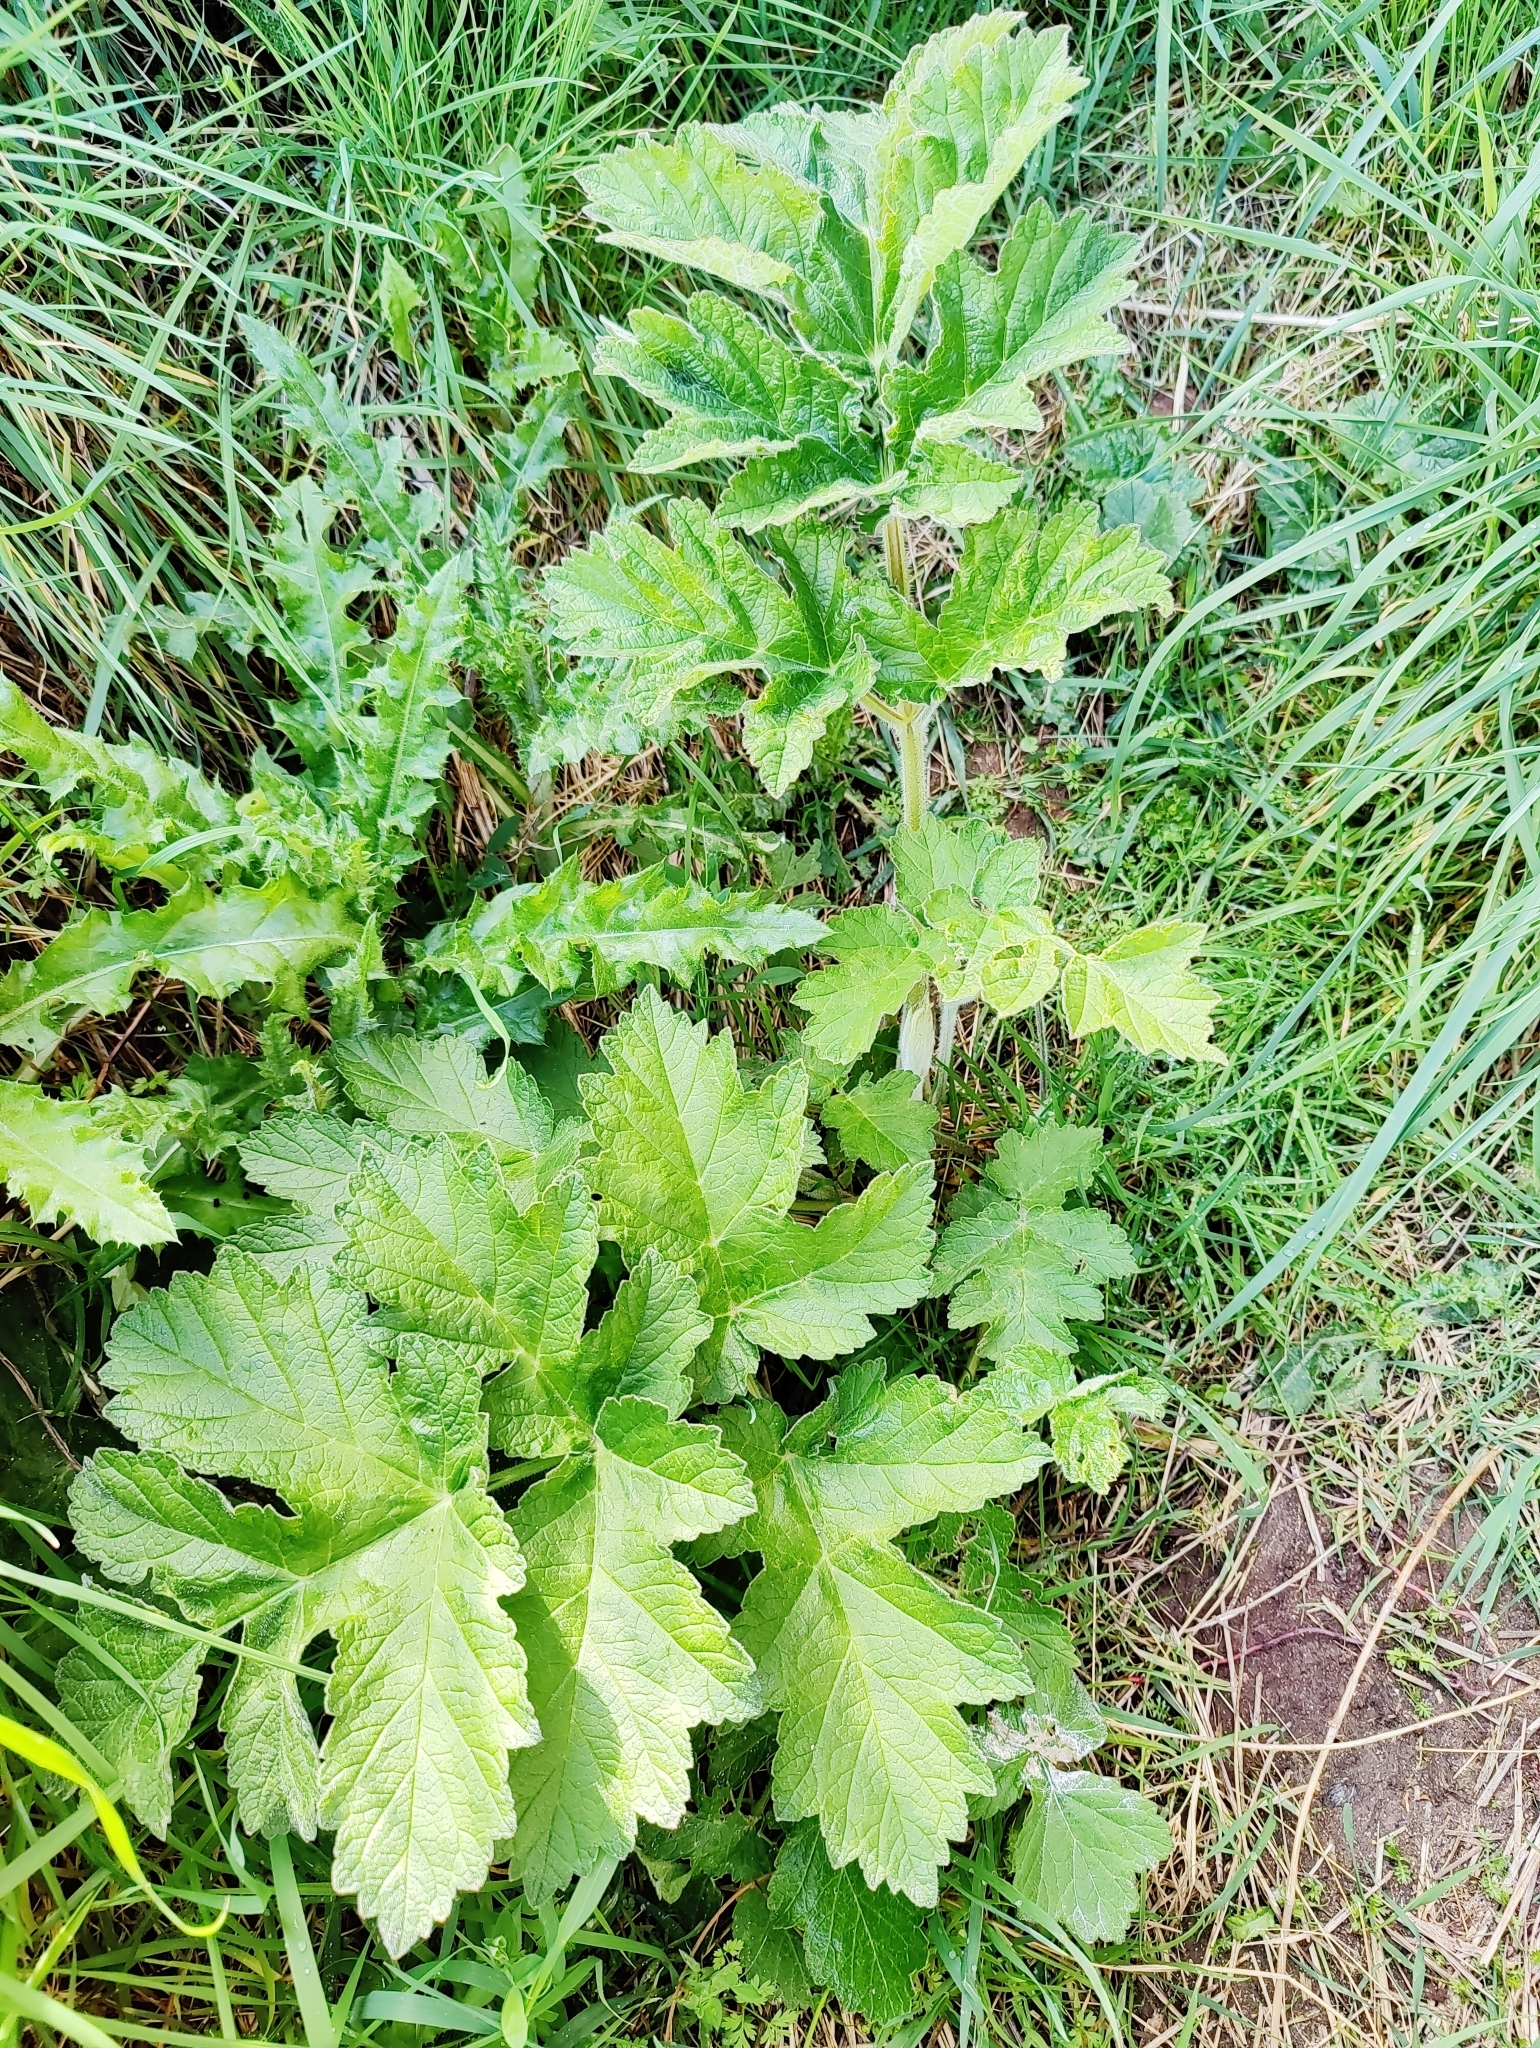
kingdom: Plantae
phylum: Tracheophyta
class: Magnoliopsida
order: Apiales
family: Apiaceae
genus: Heracleum
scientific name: Heracleum sphondylium
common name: Hogweed
